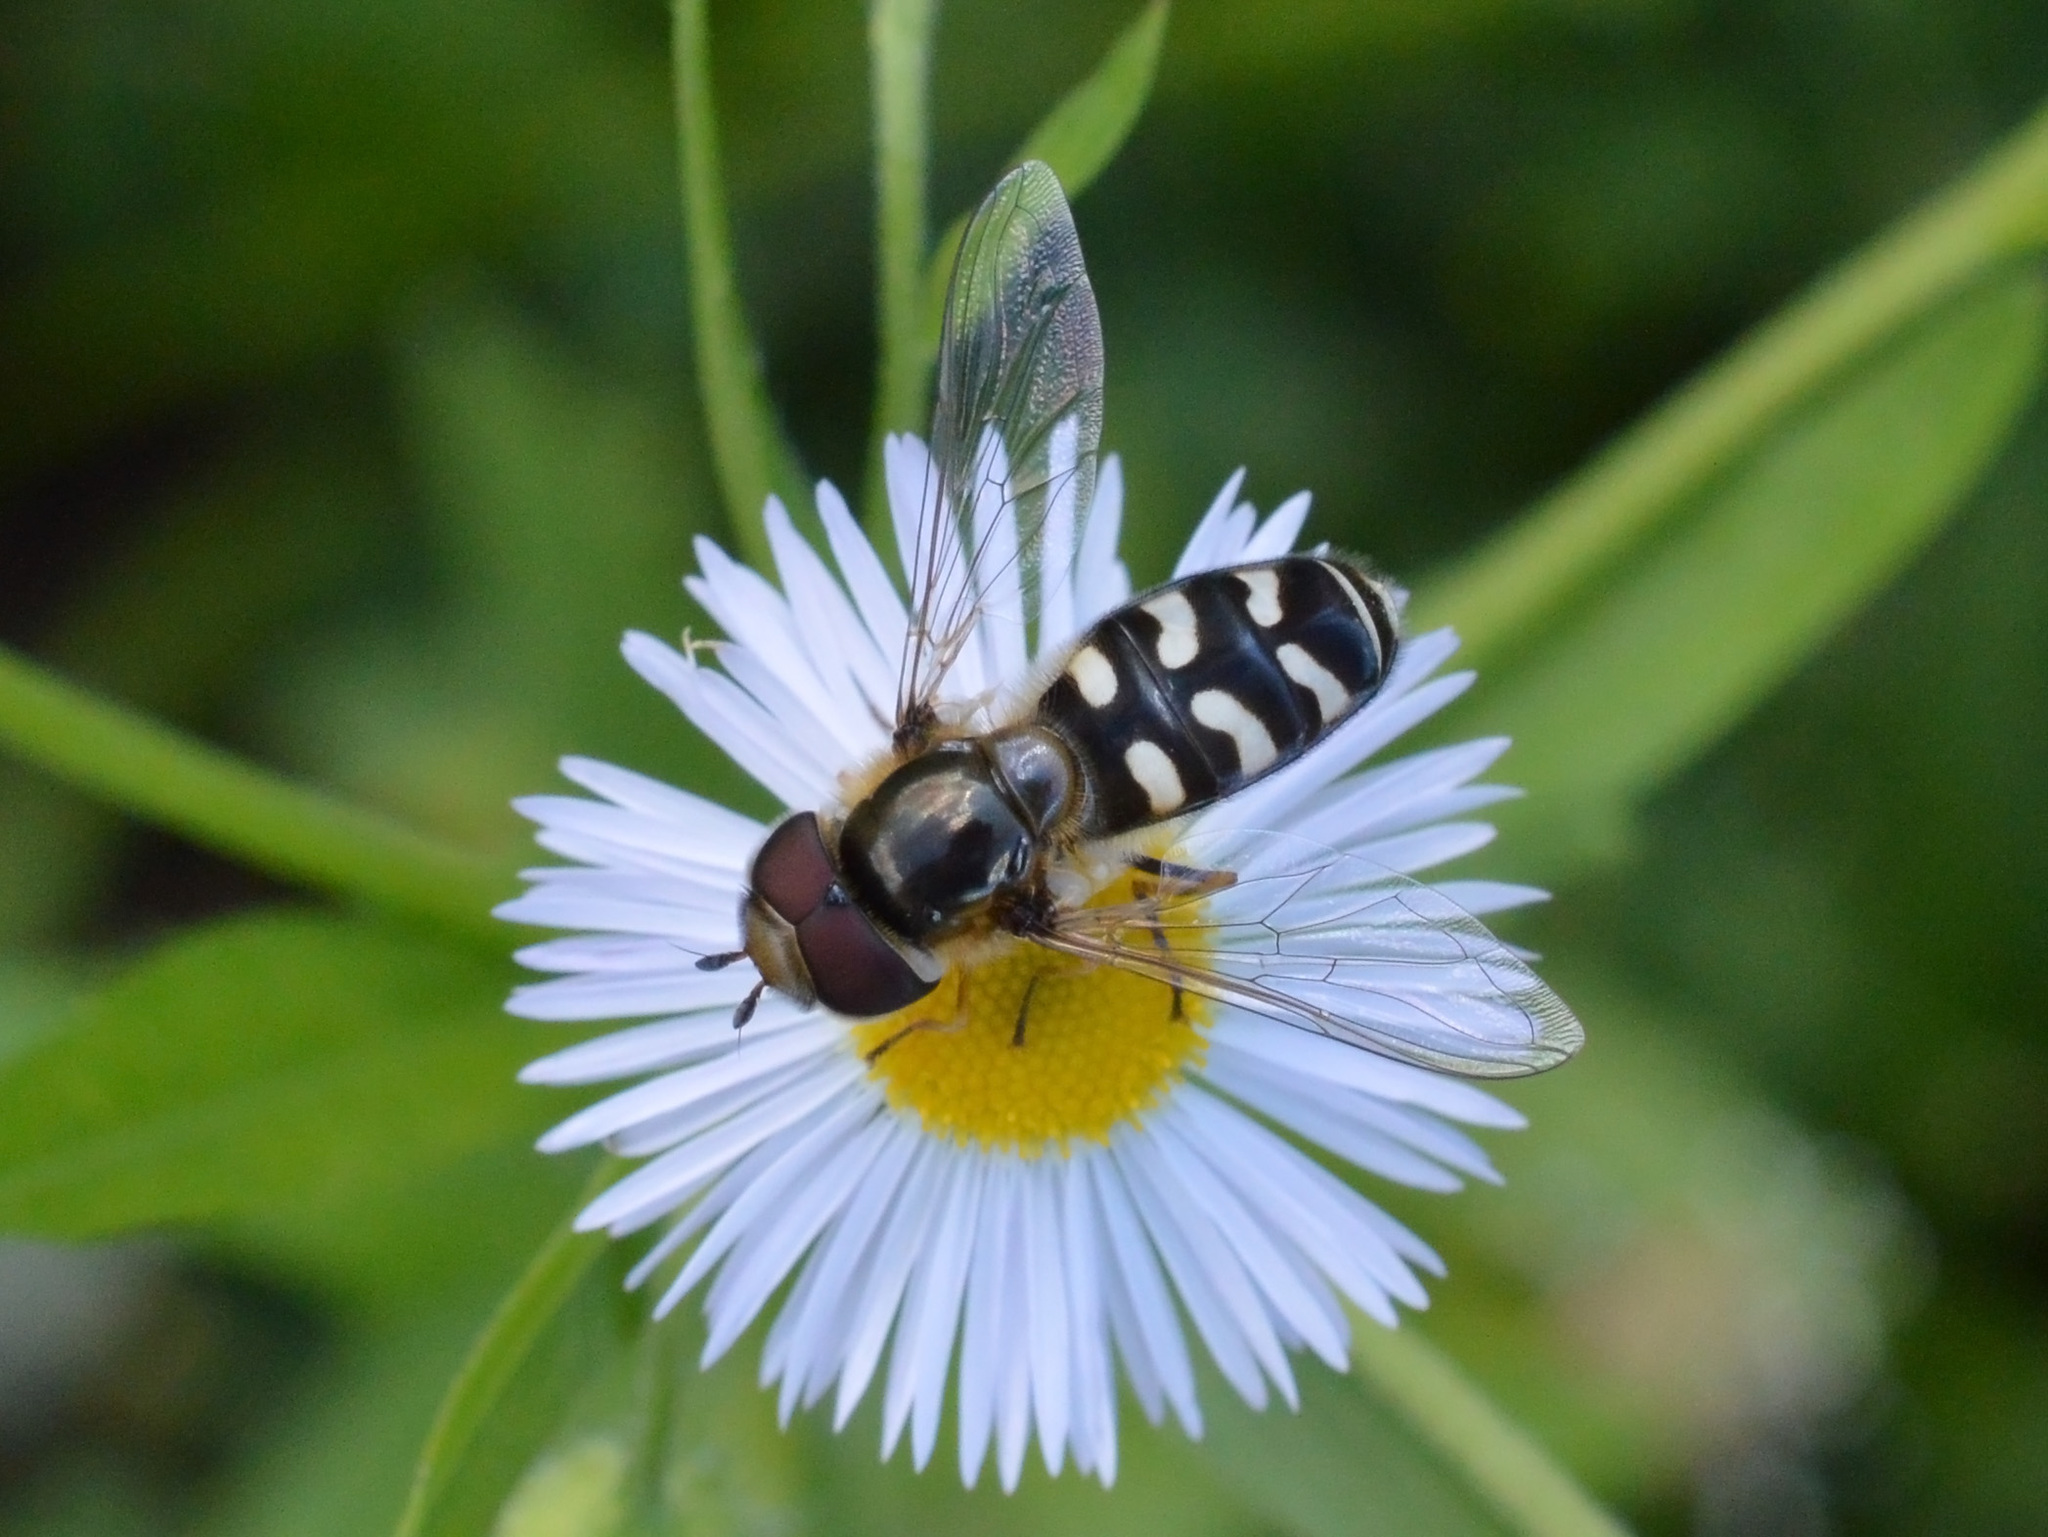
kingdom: Animalia
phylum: Arthropoda
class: Insecta
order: Diptera
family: Syrphidae
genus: Scaeva
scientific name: Scaeva pyrastri
